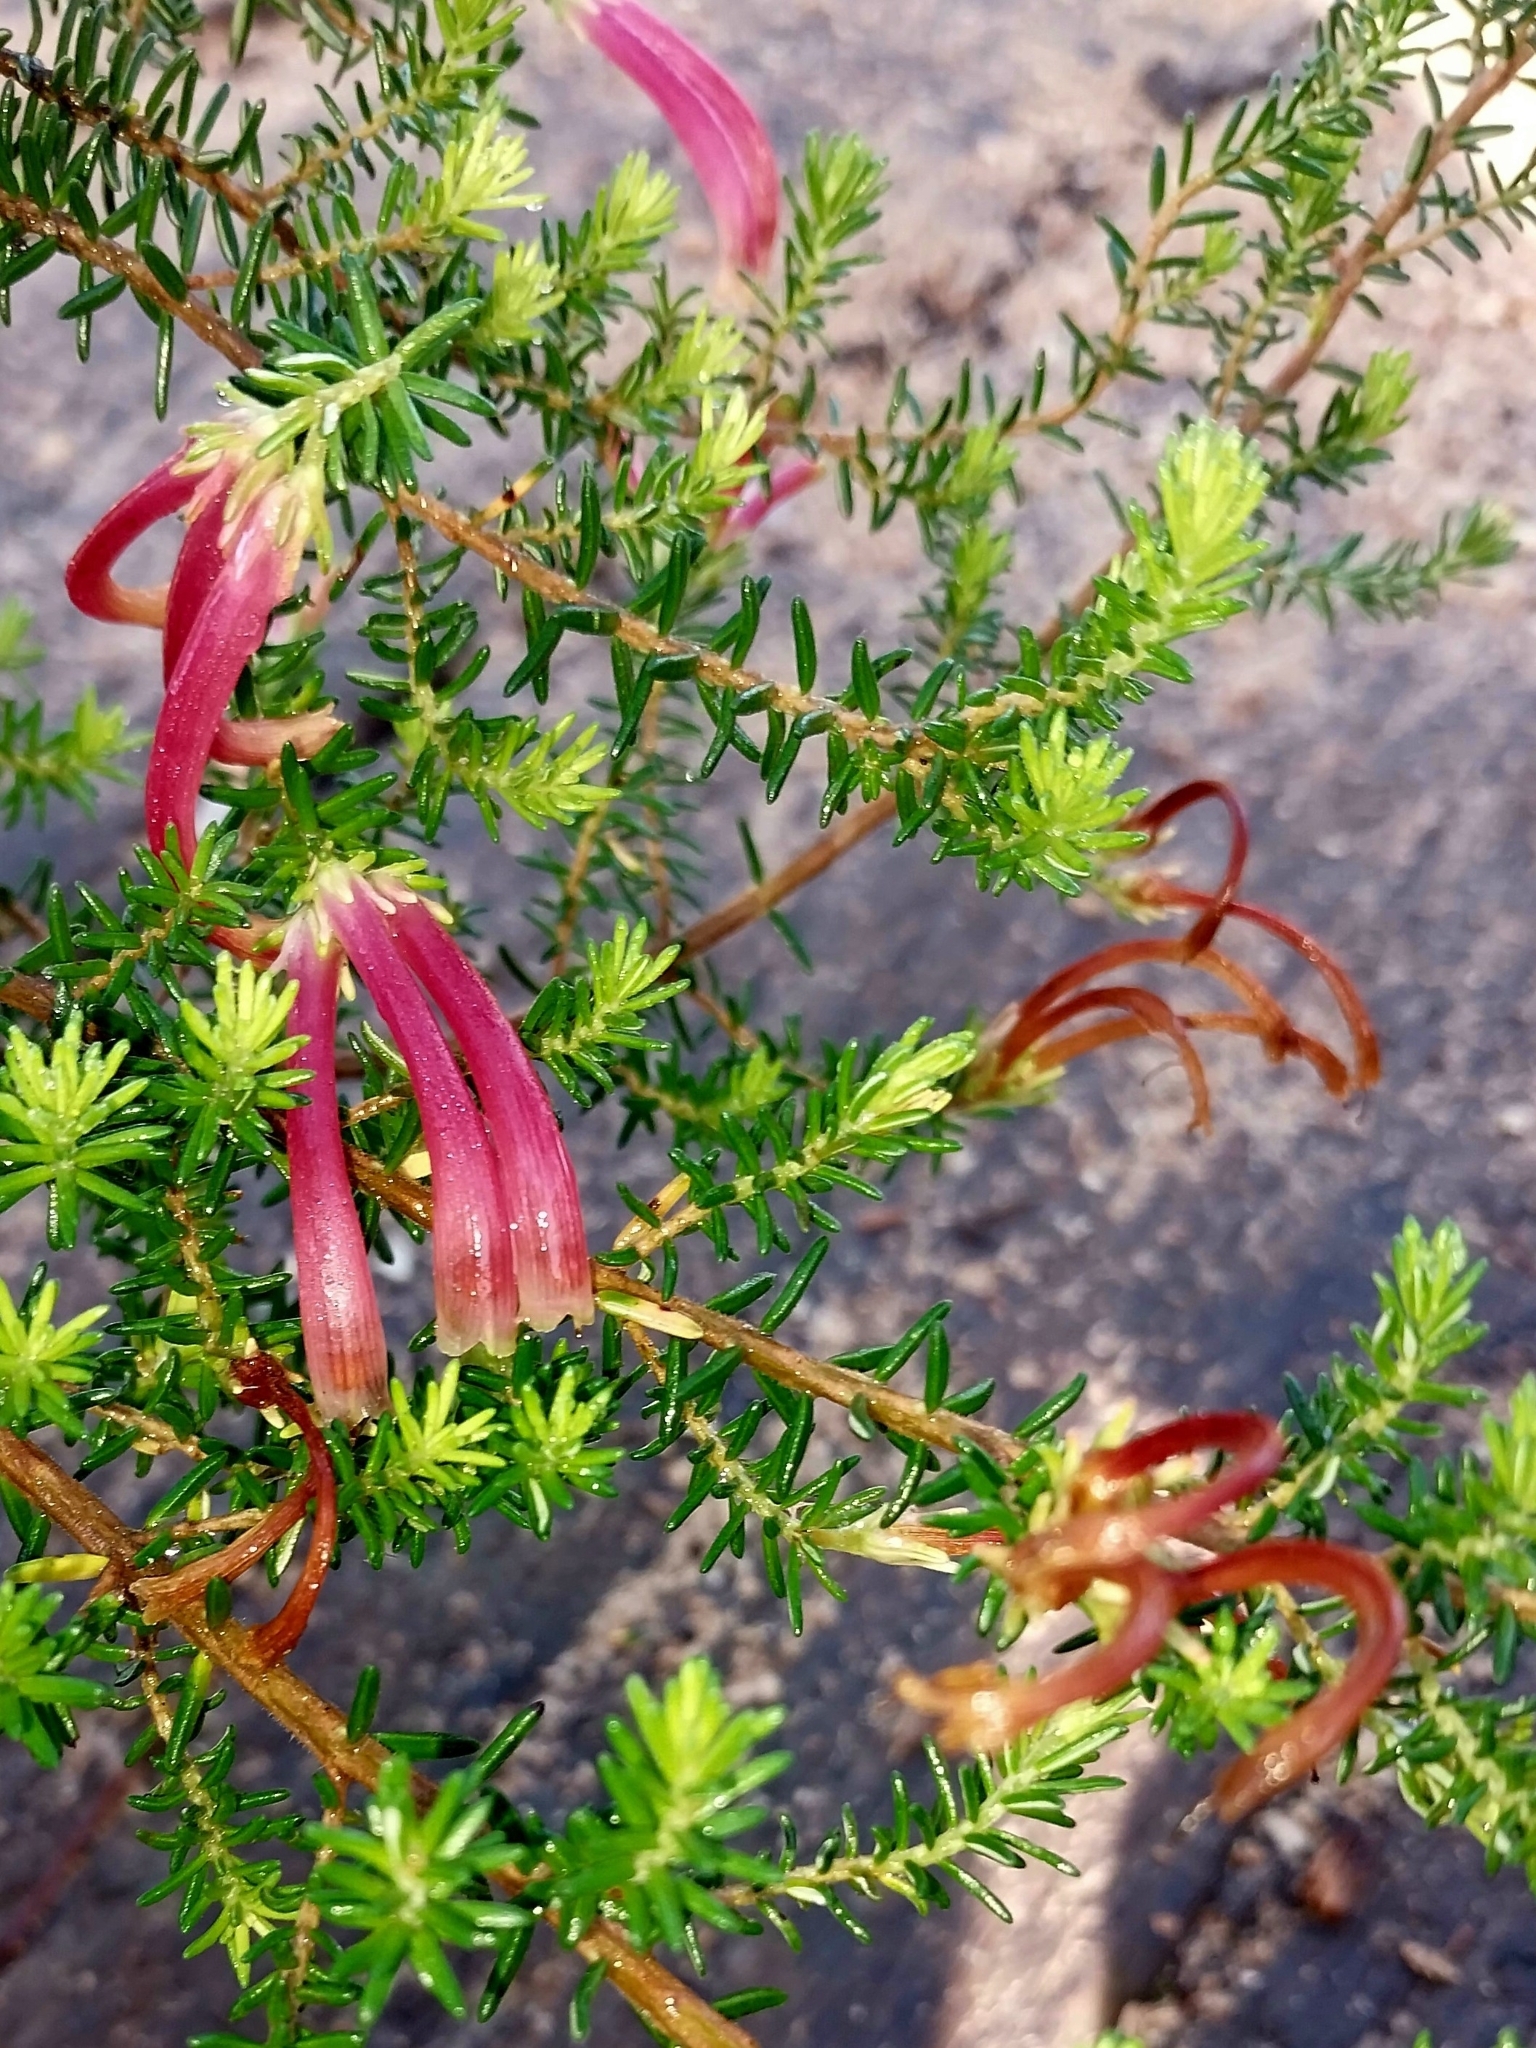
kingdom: Plantae
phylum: Tracheophyta
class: Magnoliopsida
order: Ericales
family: Ericaceae
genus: Erica
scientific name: Erica discolor
